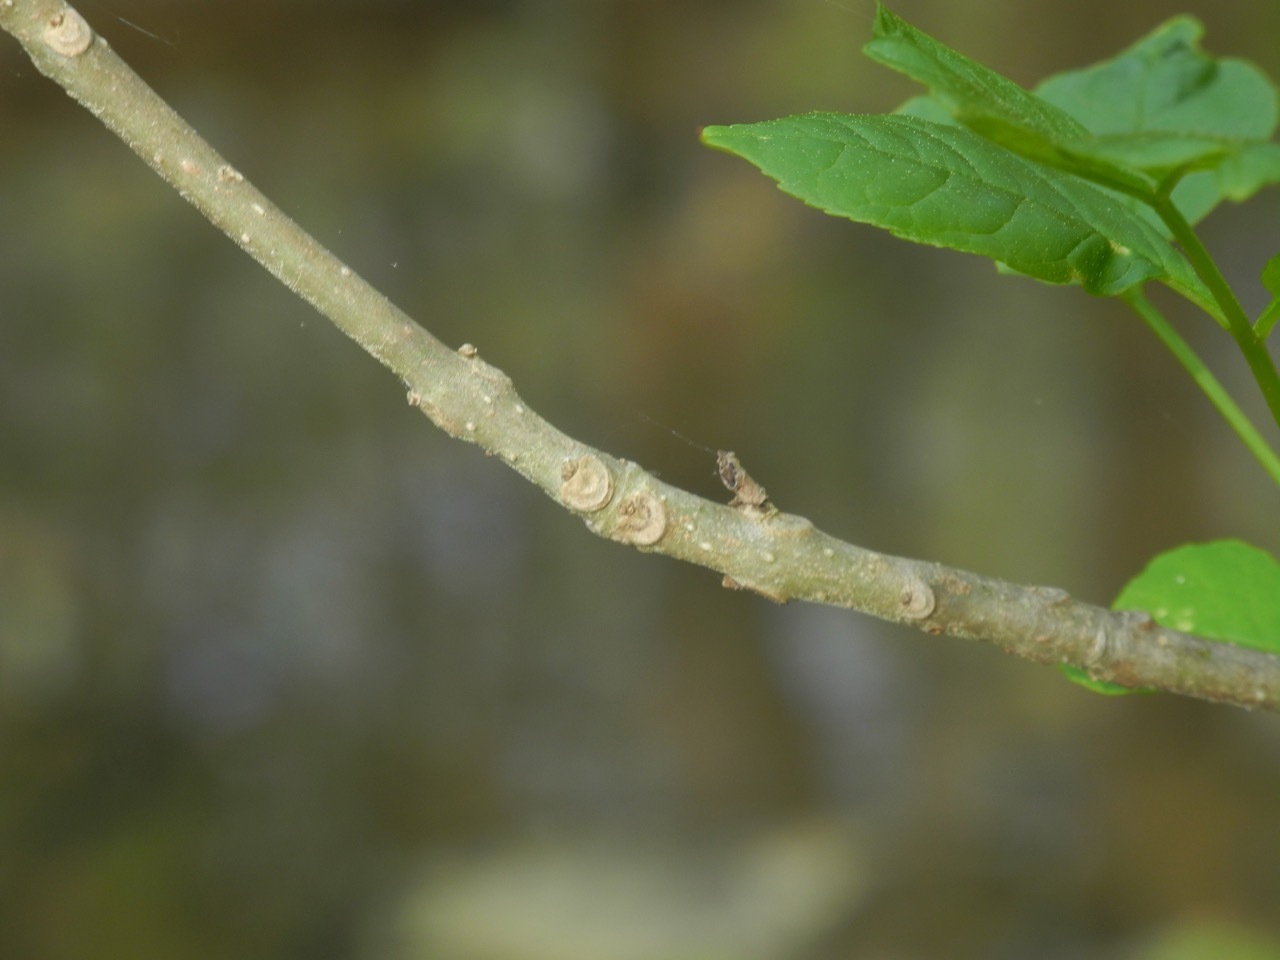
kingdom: Plantae
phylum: Tracheophyta
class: Magnoliopsida
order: Lamiales
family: Oleaceae
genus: Fraxinus
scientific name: Fraxinus pennsylvanica
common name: Green ash
